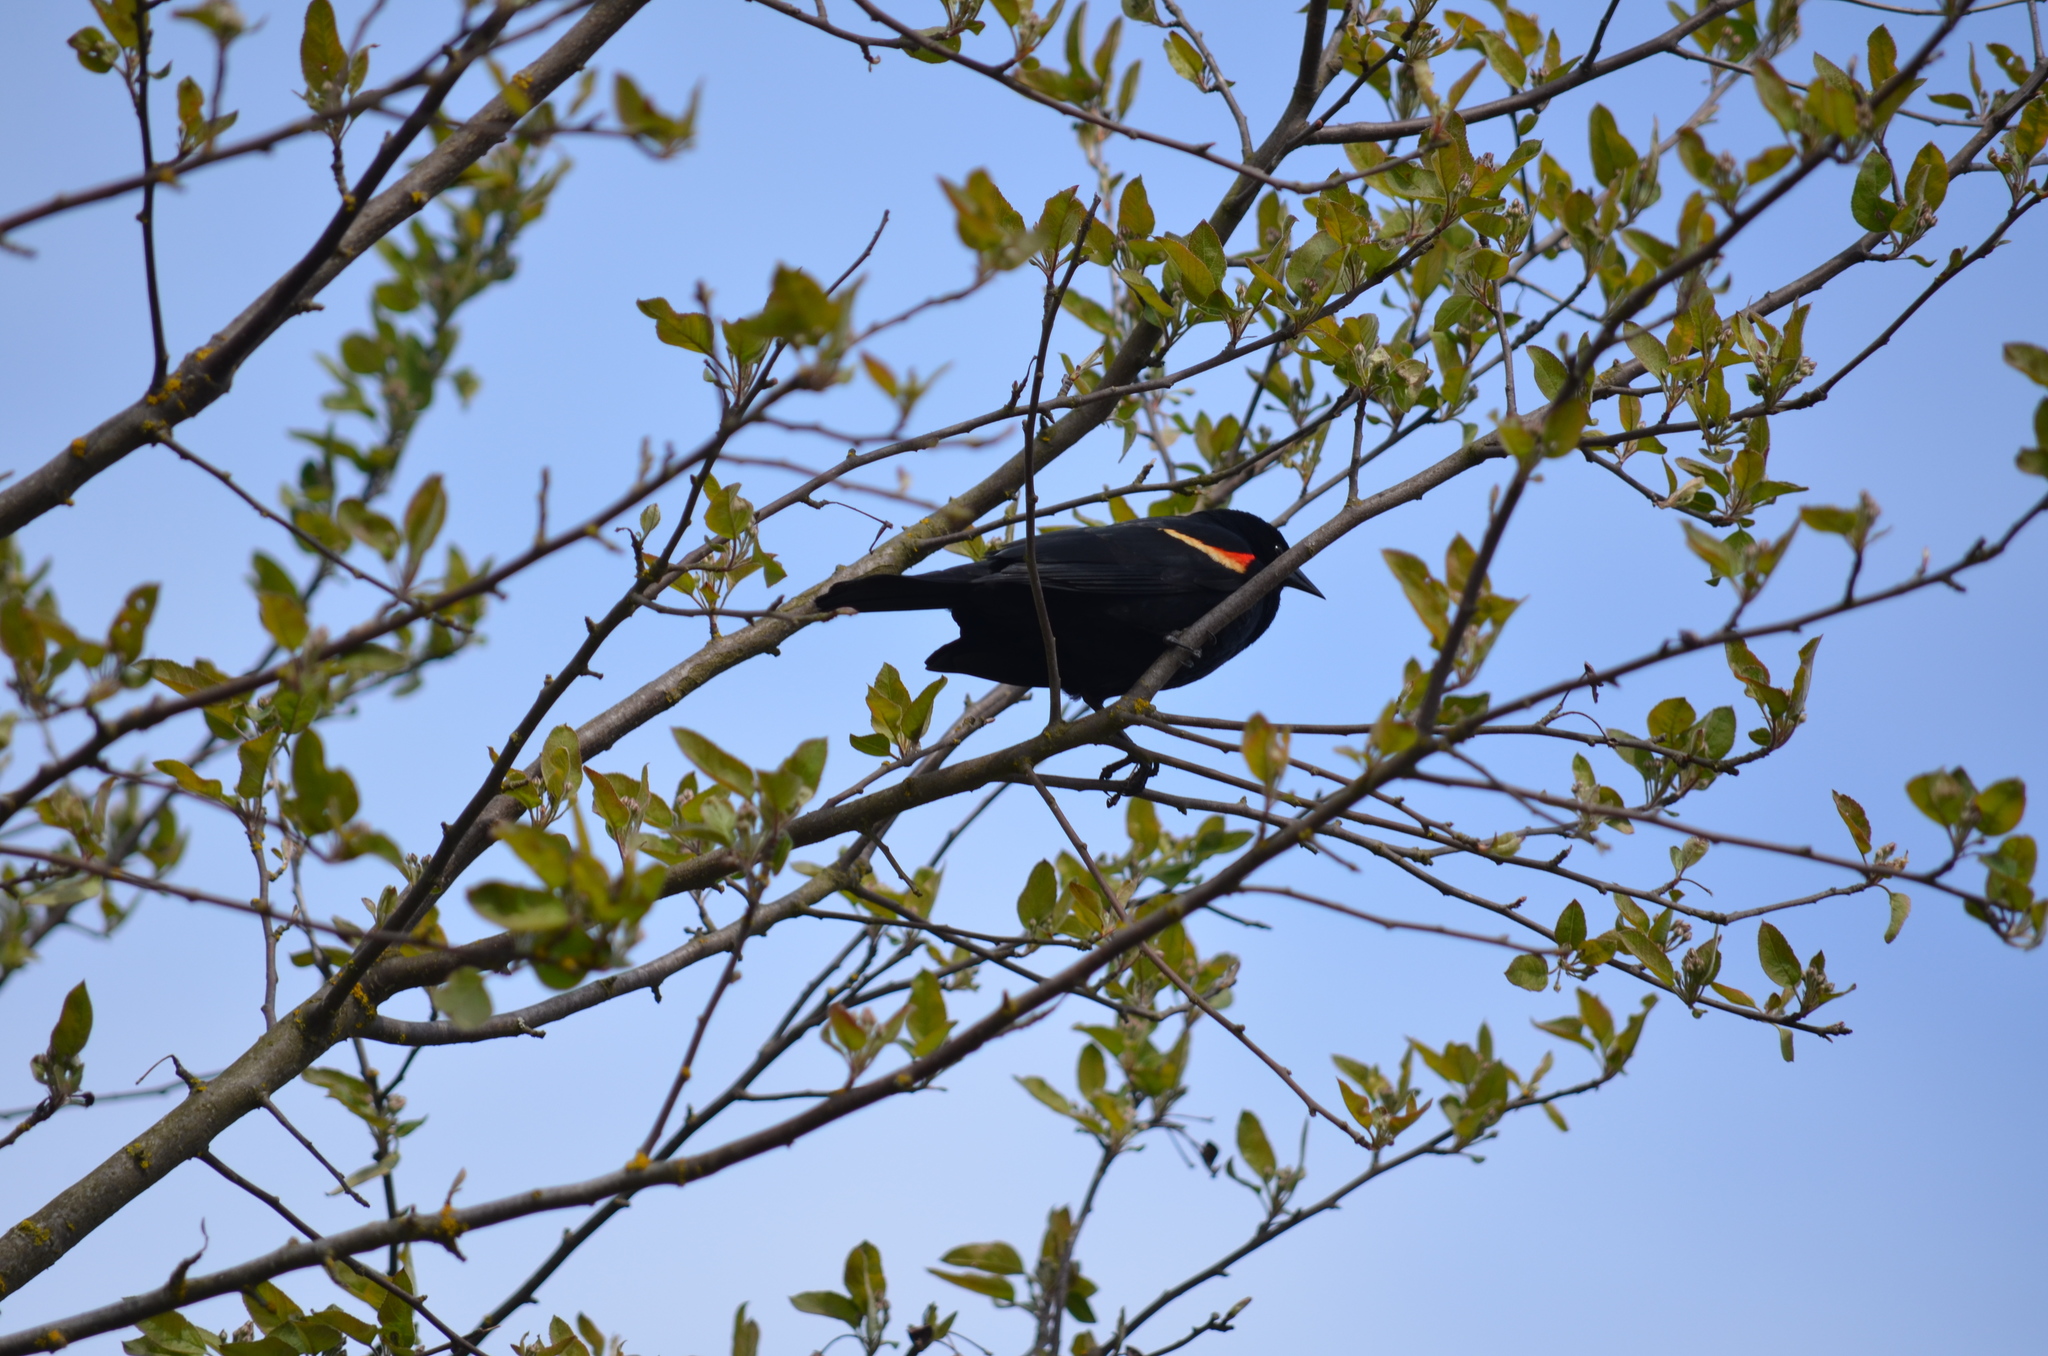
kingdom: Animalia
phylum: Chordata
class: Aves
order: Passeriformes
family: Icteridae
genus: Agelaius
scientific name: Agelaius phoeniceus
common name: Red-winged blackbird
